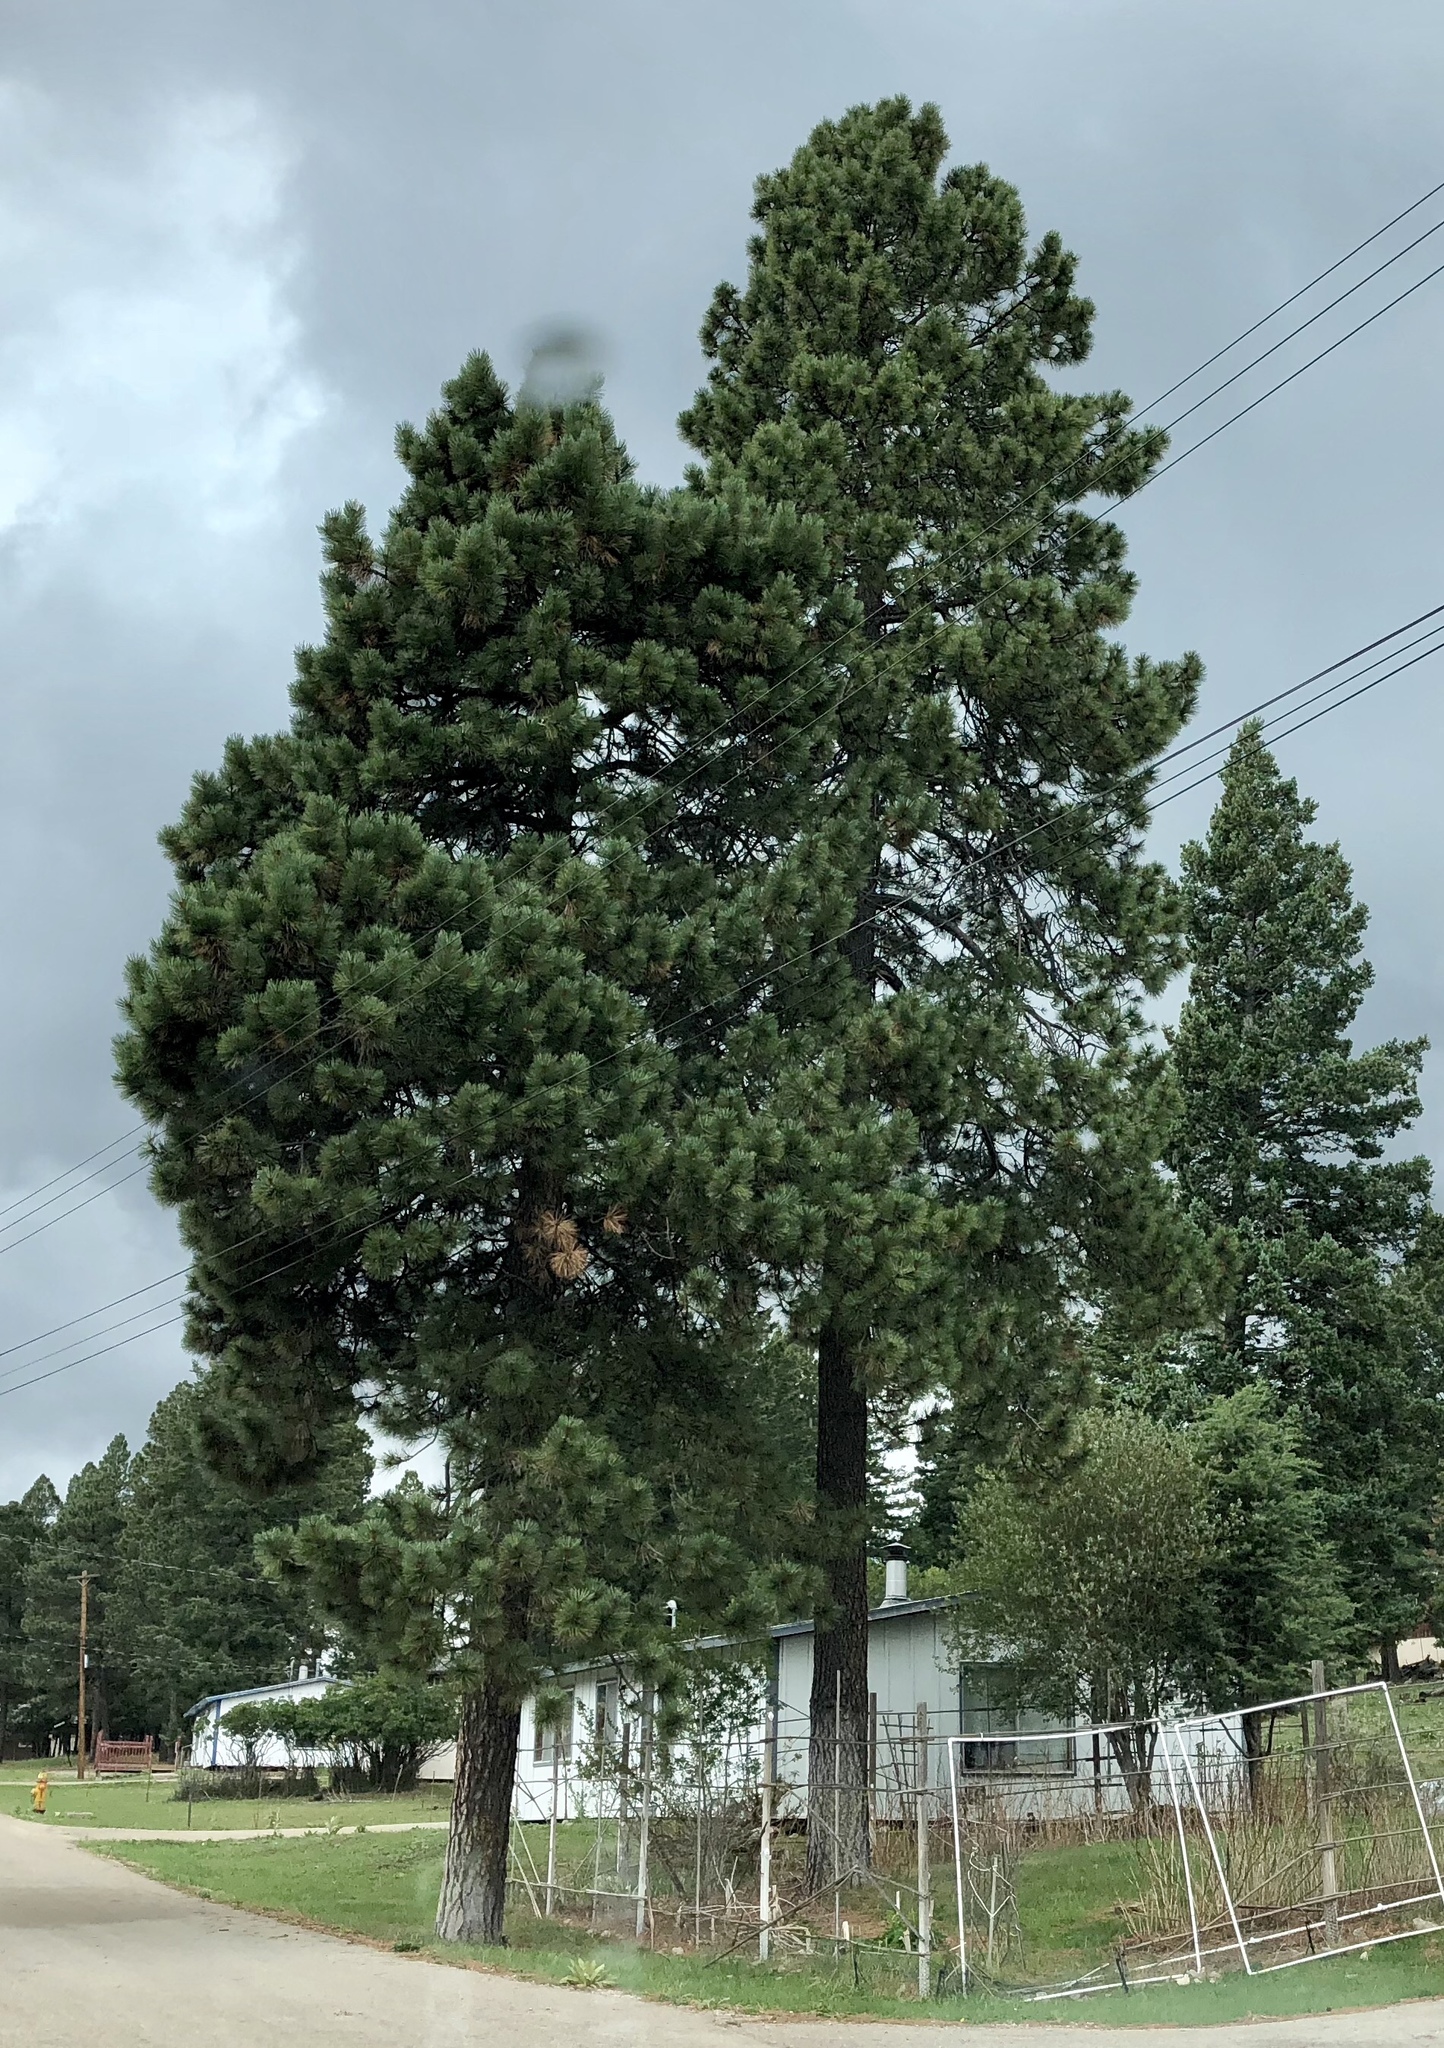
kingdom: Plantae
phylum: Tracheophyta
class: Pinopsida
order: Pinales
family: Pinaceae
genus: Pinus
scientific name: Pinus ponderosa
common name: Western yellow-pine
